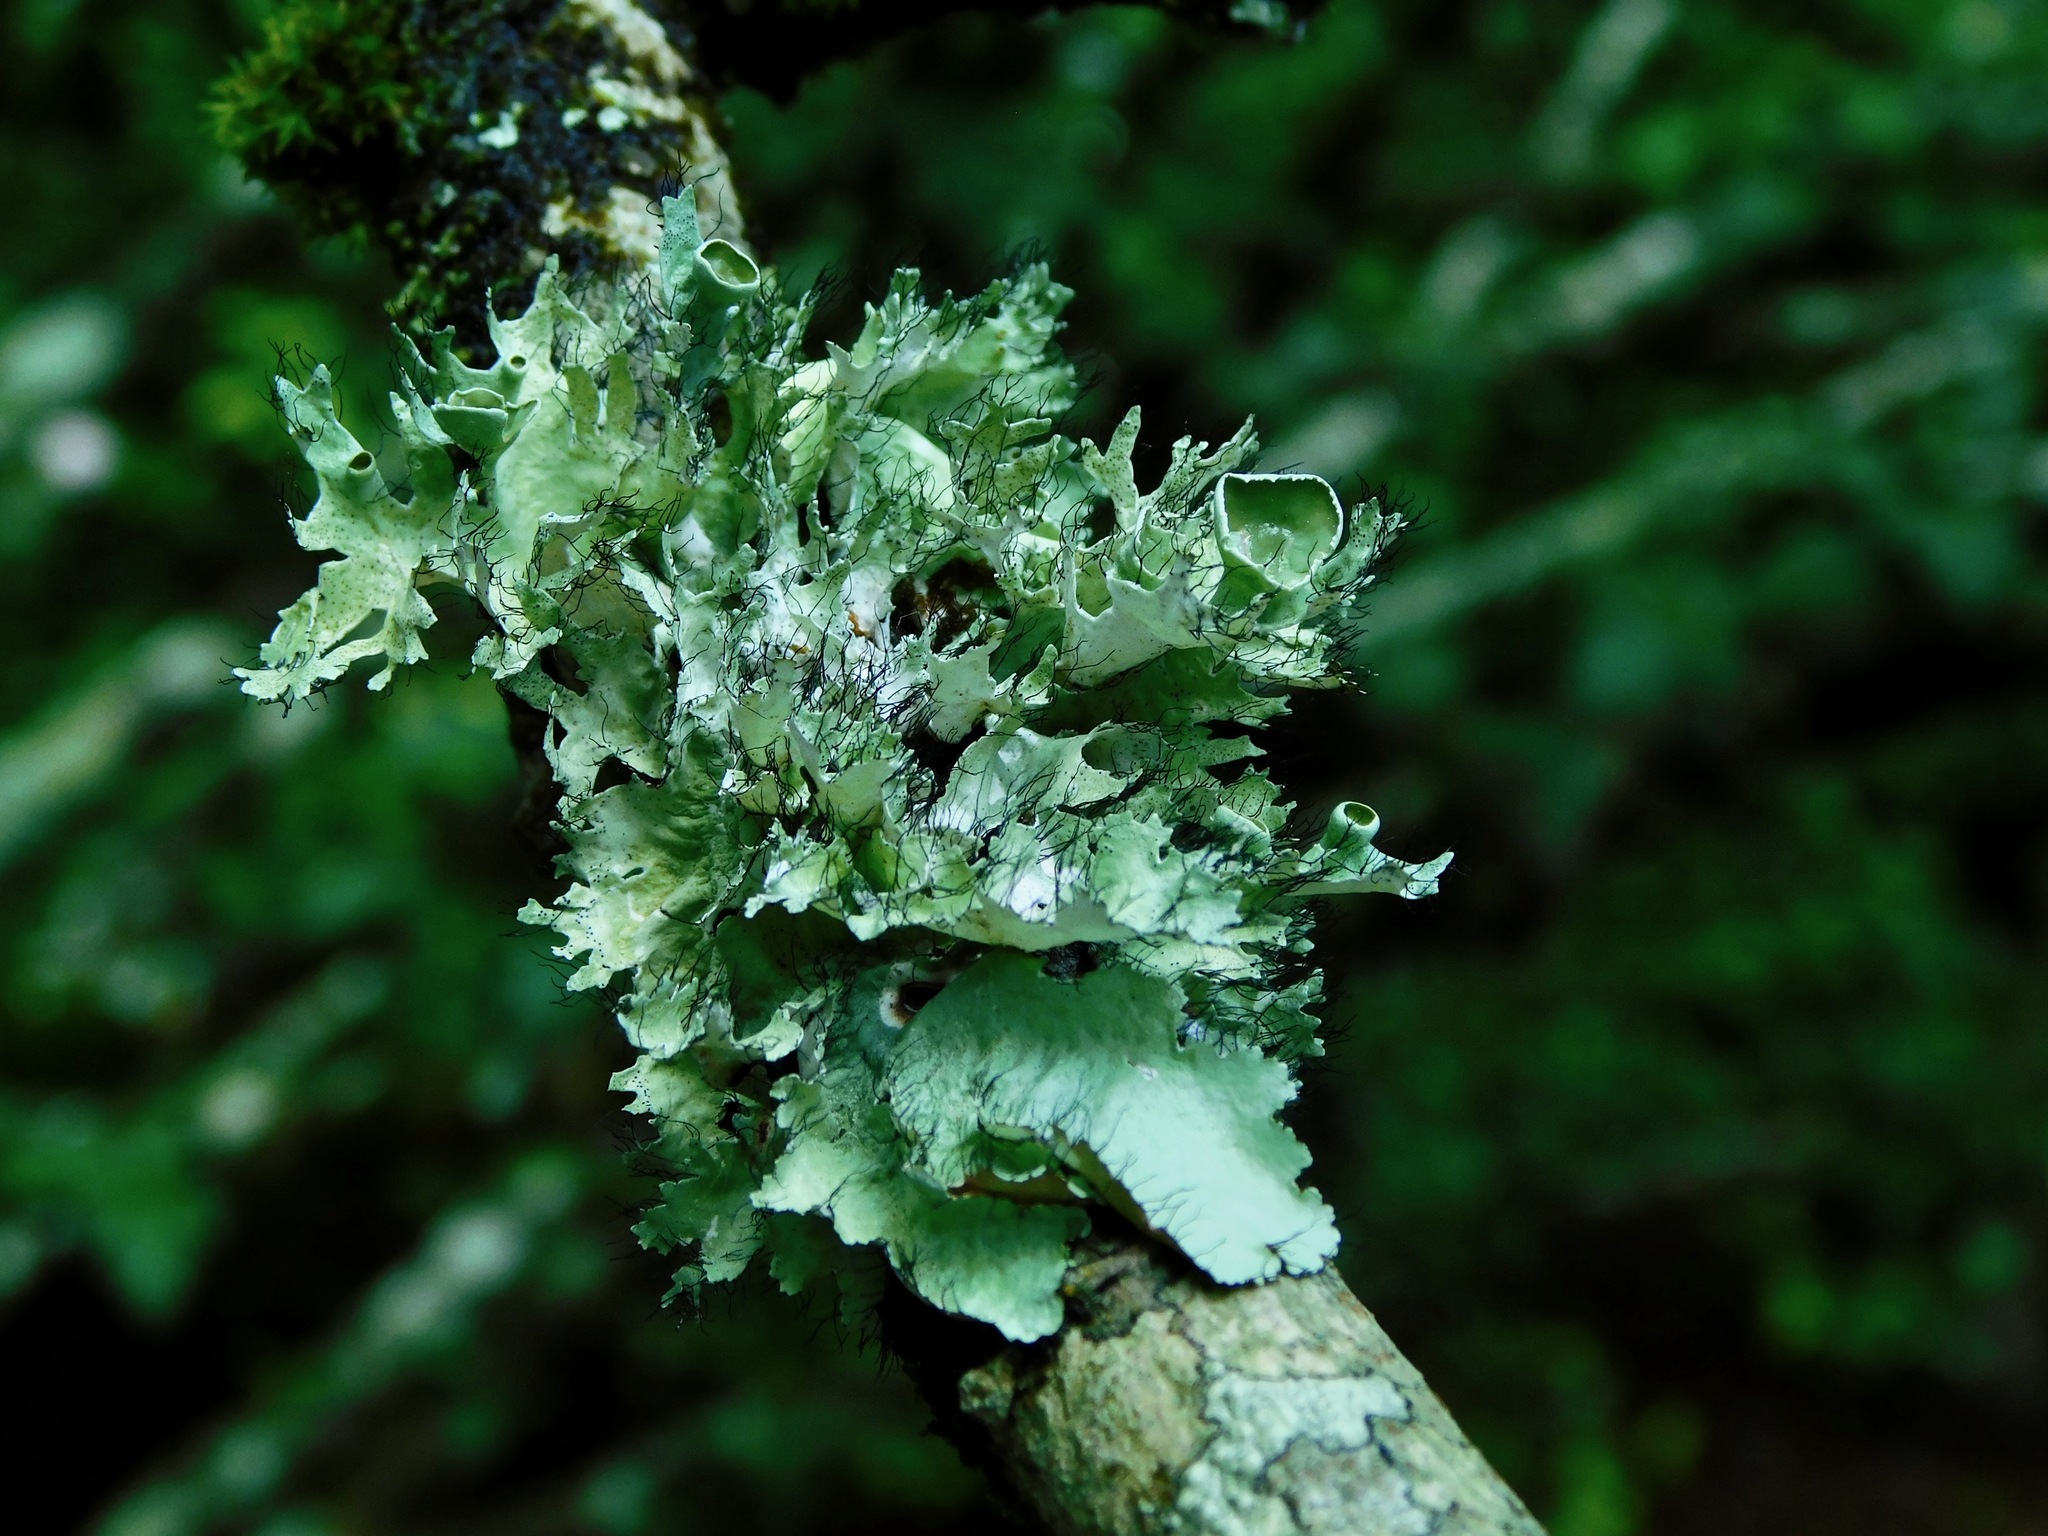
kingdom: Fungi
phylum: Ascomycota
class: Lecanoromycetes
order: Lecanorales
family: Parmeliaceae
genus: Parmotrema
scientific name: Parmotrema subrigidum
